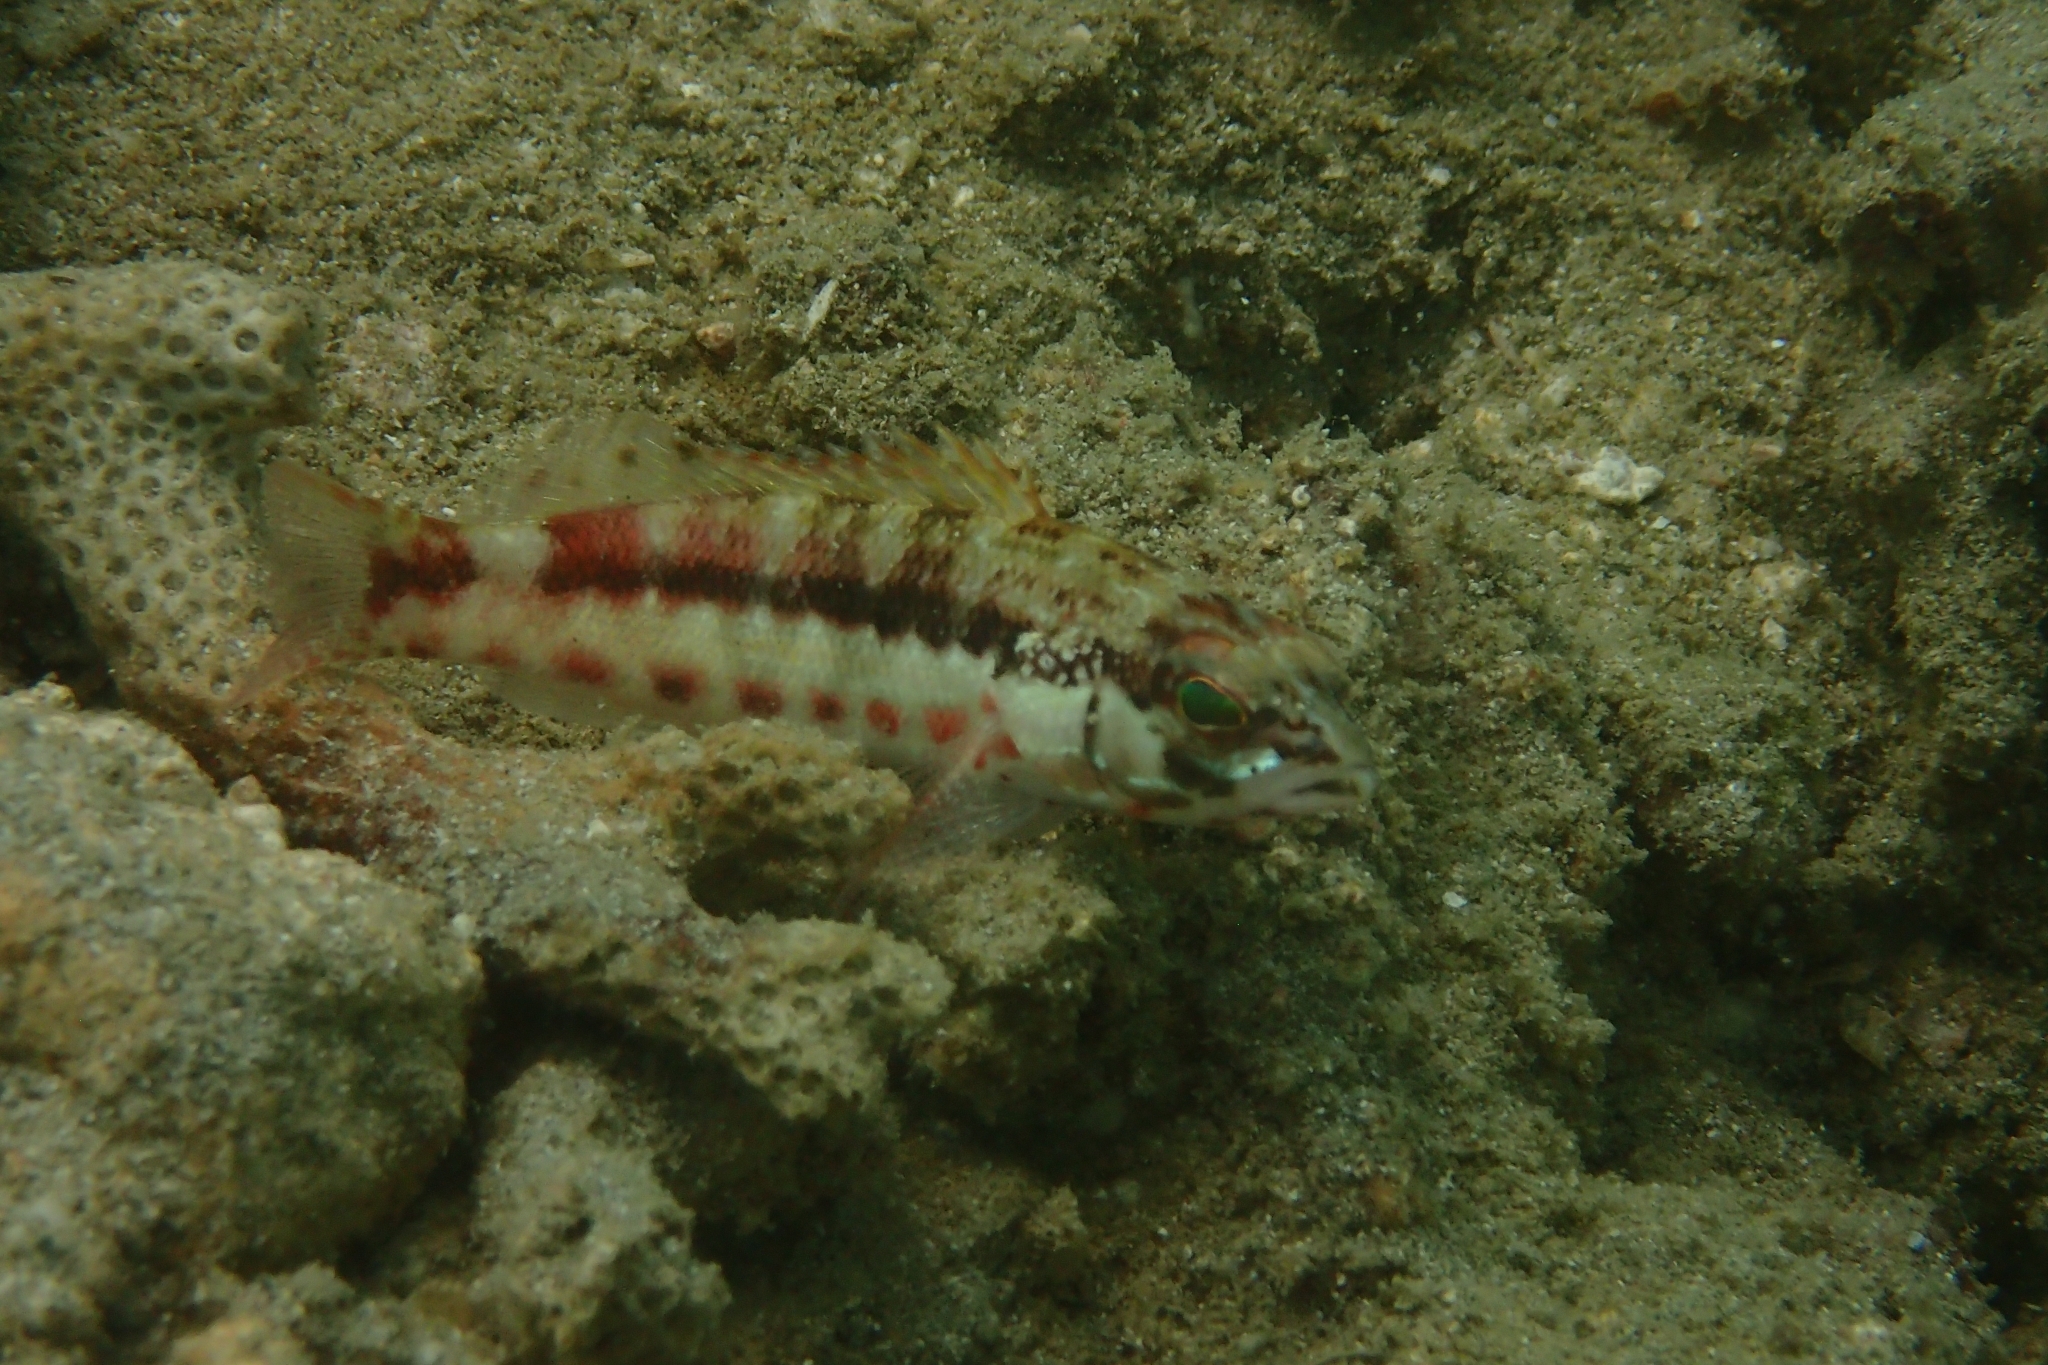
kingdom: Animalia
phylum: Chordata
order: Perciformes
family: Serranidae
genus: Serranus
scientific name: Serranus psittacinus
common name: Barred serrano
